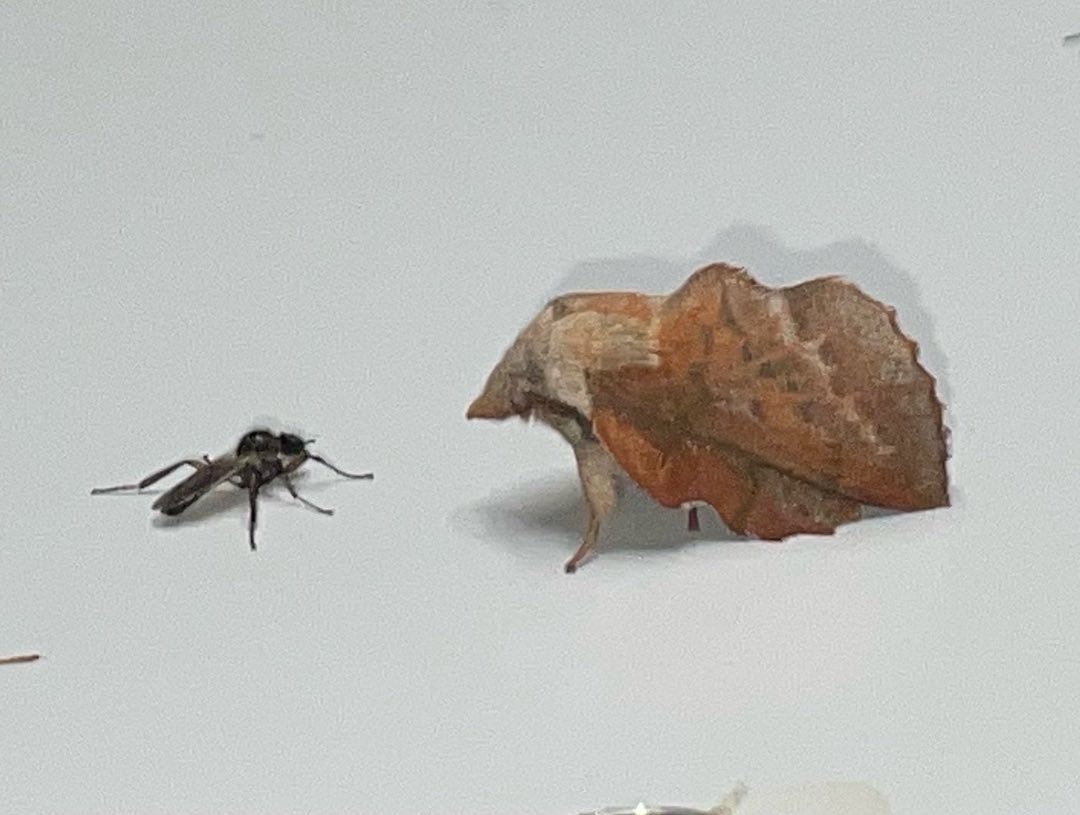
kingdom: Animalia
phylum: Arthropoda
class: Insecta
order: Lepidoptera
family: Lasiocampidae
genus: Phyllodesma
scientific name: Phyllodesma americana
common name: American lappet moth
